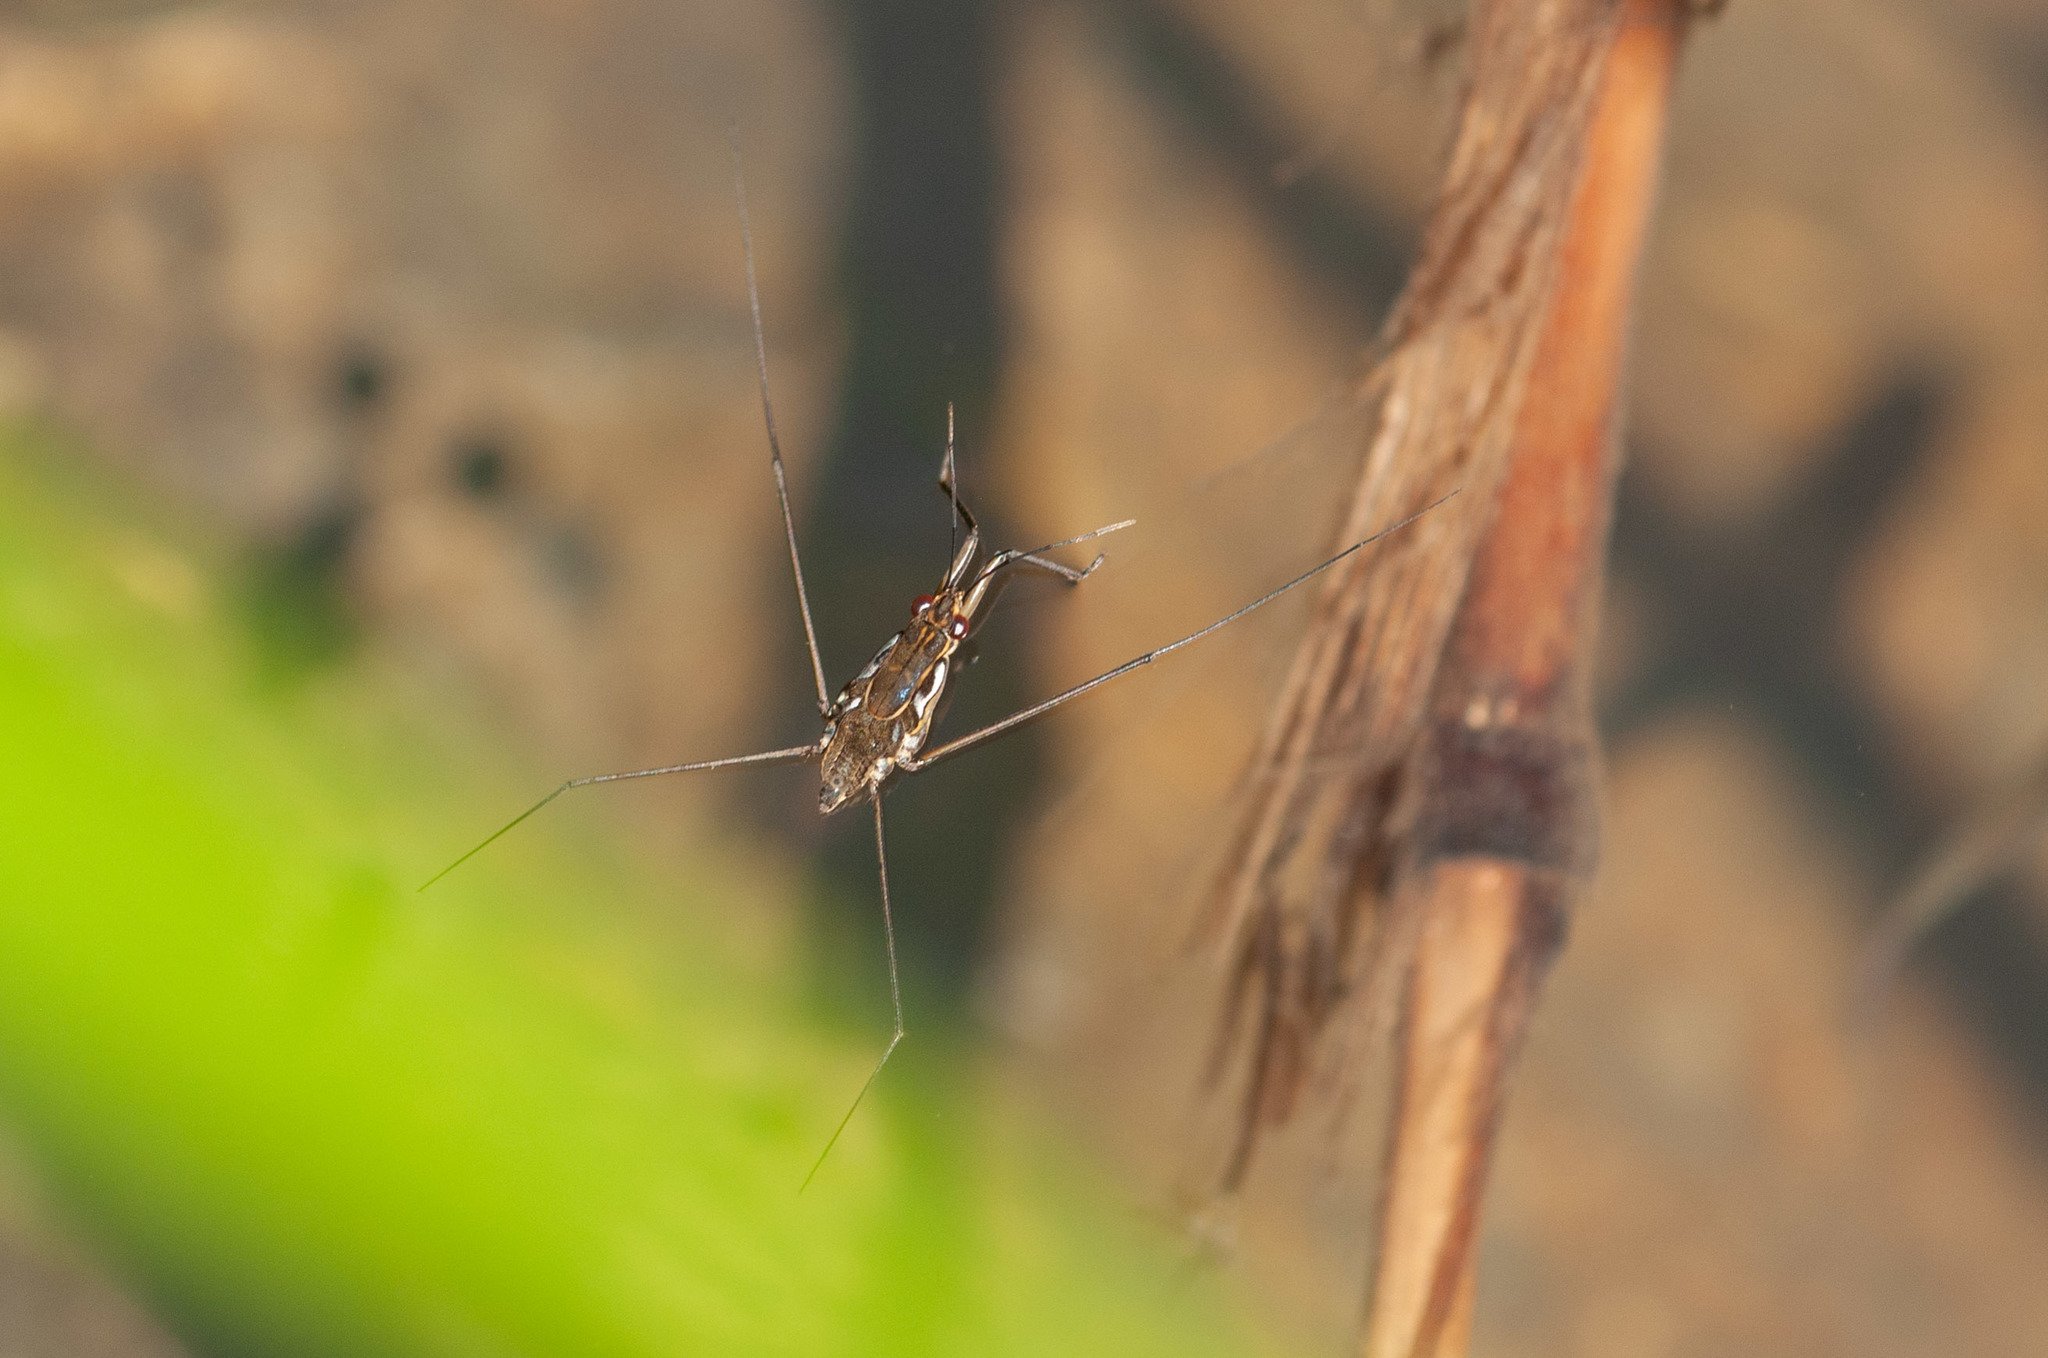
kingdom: Animalia
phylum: Arthropoda
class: Insecta
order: Hemiptera
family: Gerridae
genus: Tenagogerris
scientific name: Tenagogerris euphrosyne
